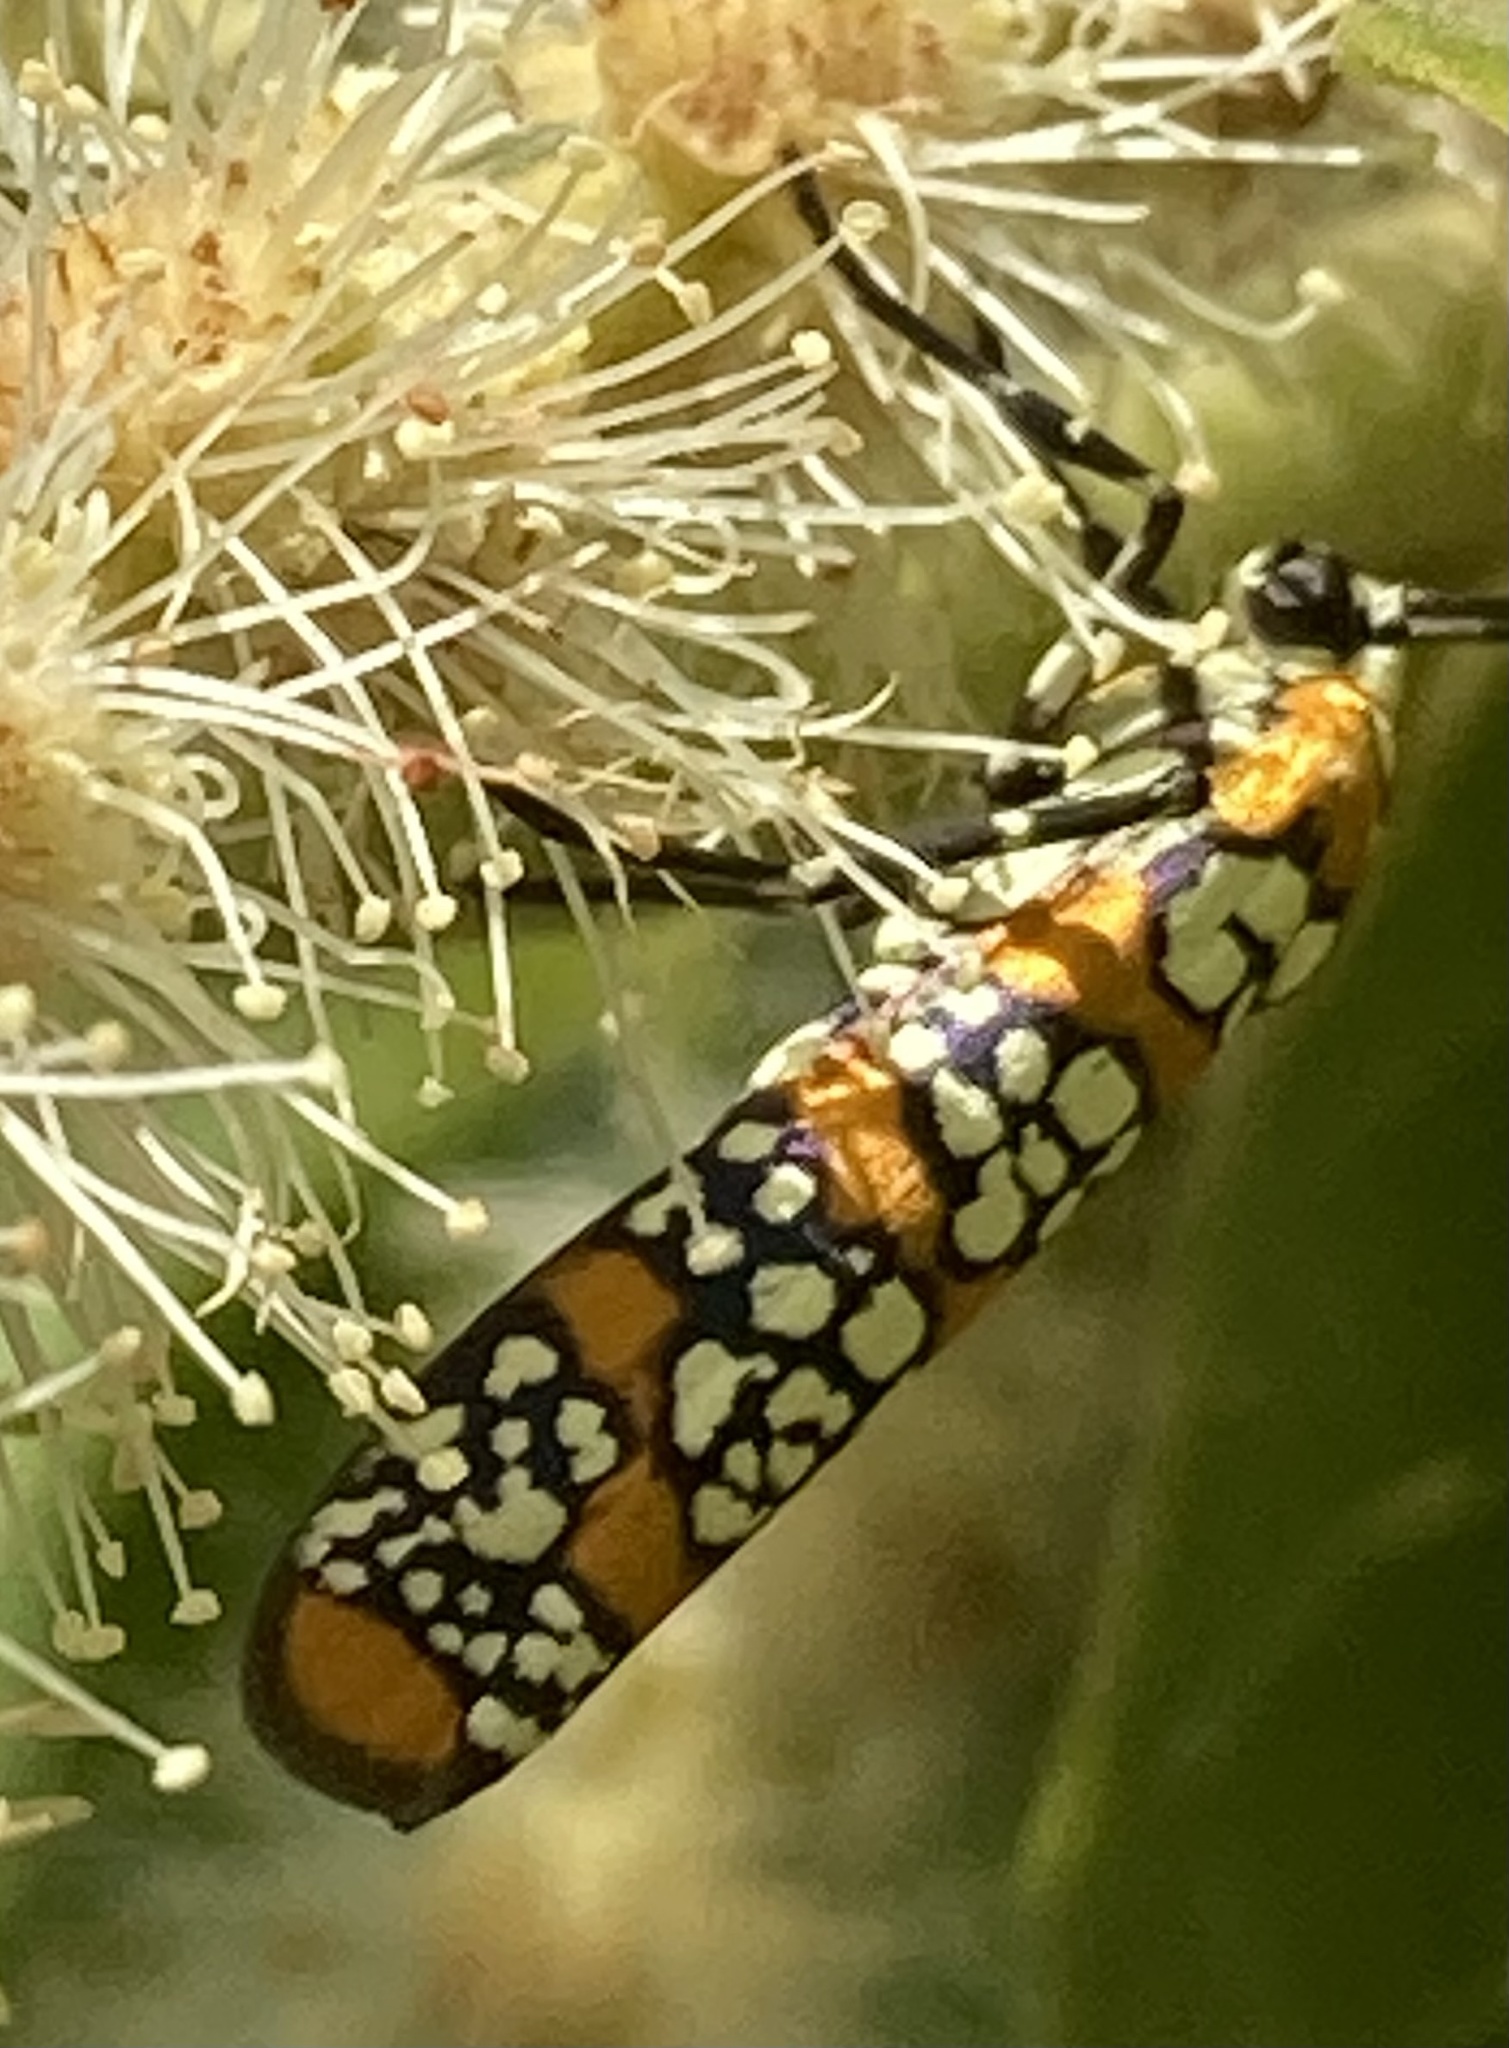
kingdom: Animalia
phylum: Arthropoda
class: Insecta
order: Lepidoptera
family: Attevidae
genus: Atteva
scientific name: Atteva punctella
